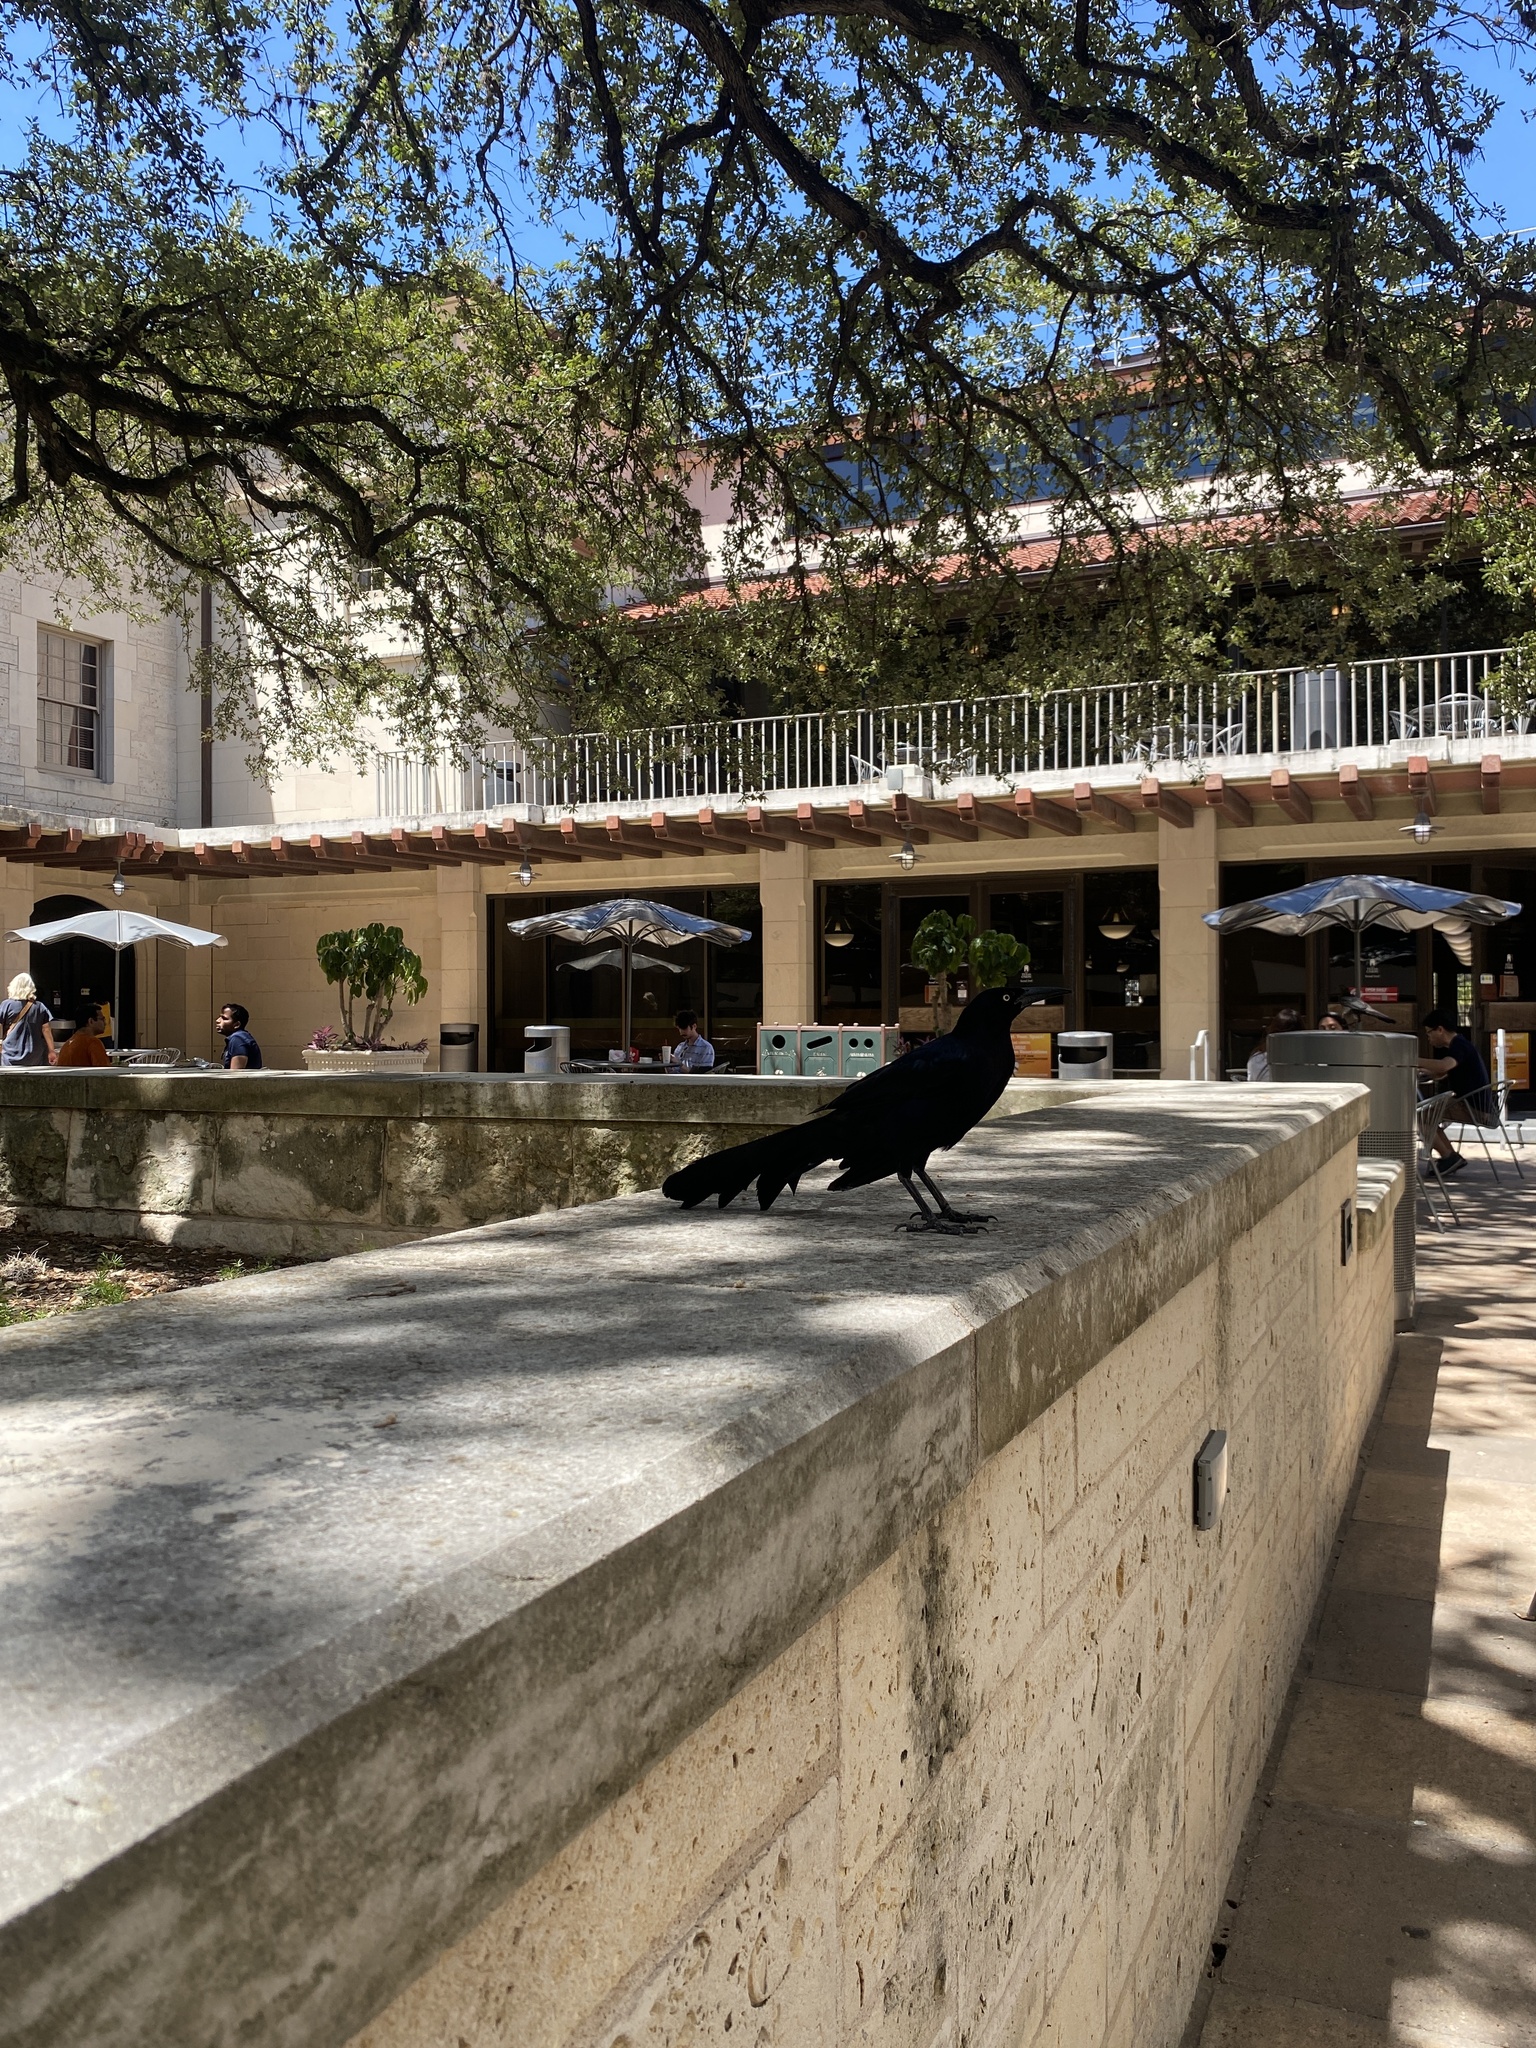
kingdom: Animalia
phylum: Chordata
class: Aves
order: Passeriformes
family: Icteridae
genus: Quiscalus
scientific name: Quiscalus mexicanus
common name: Great-tailed grackle
